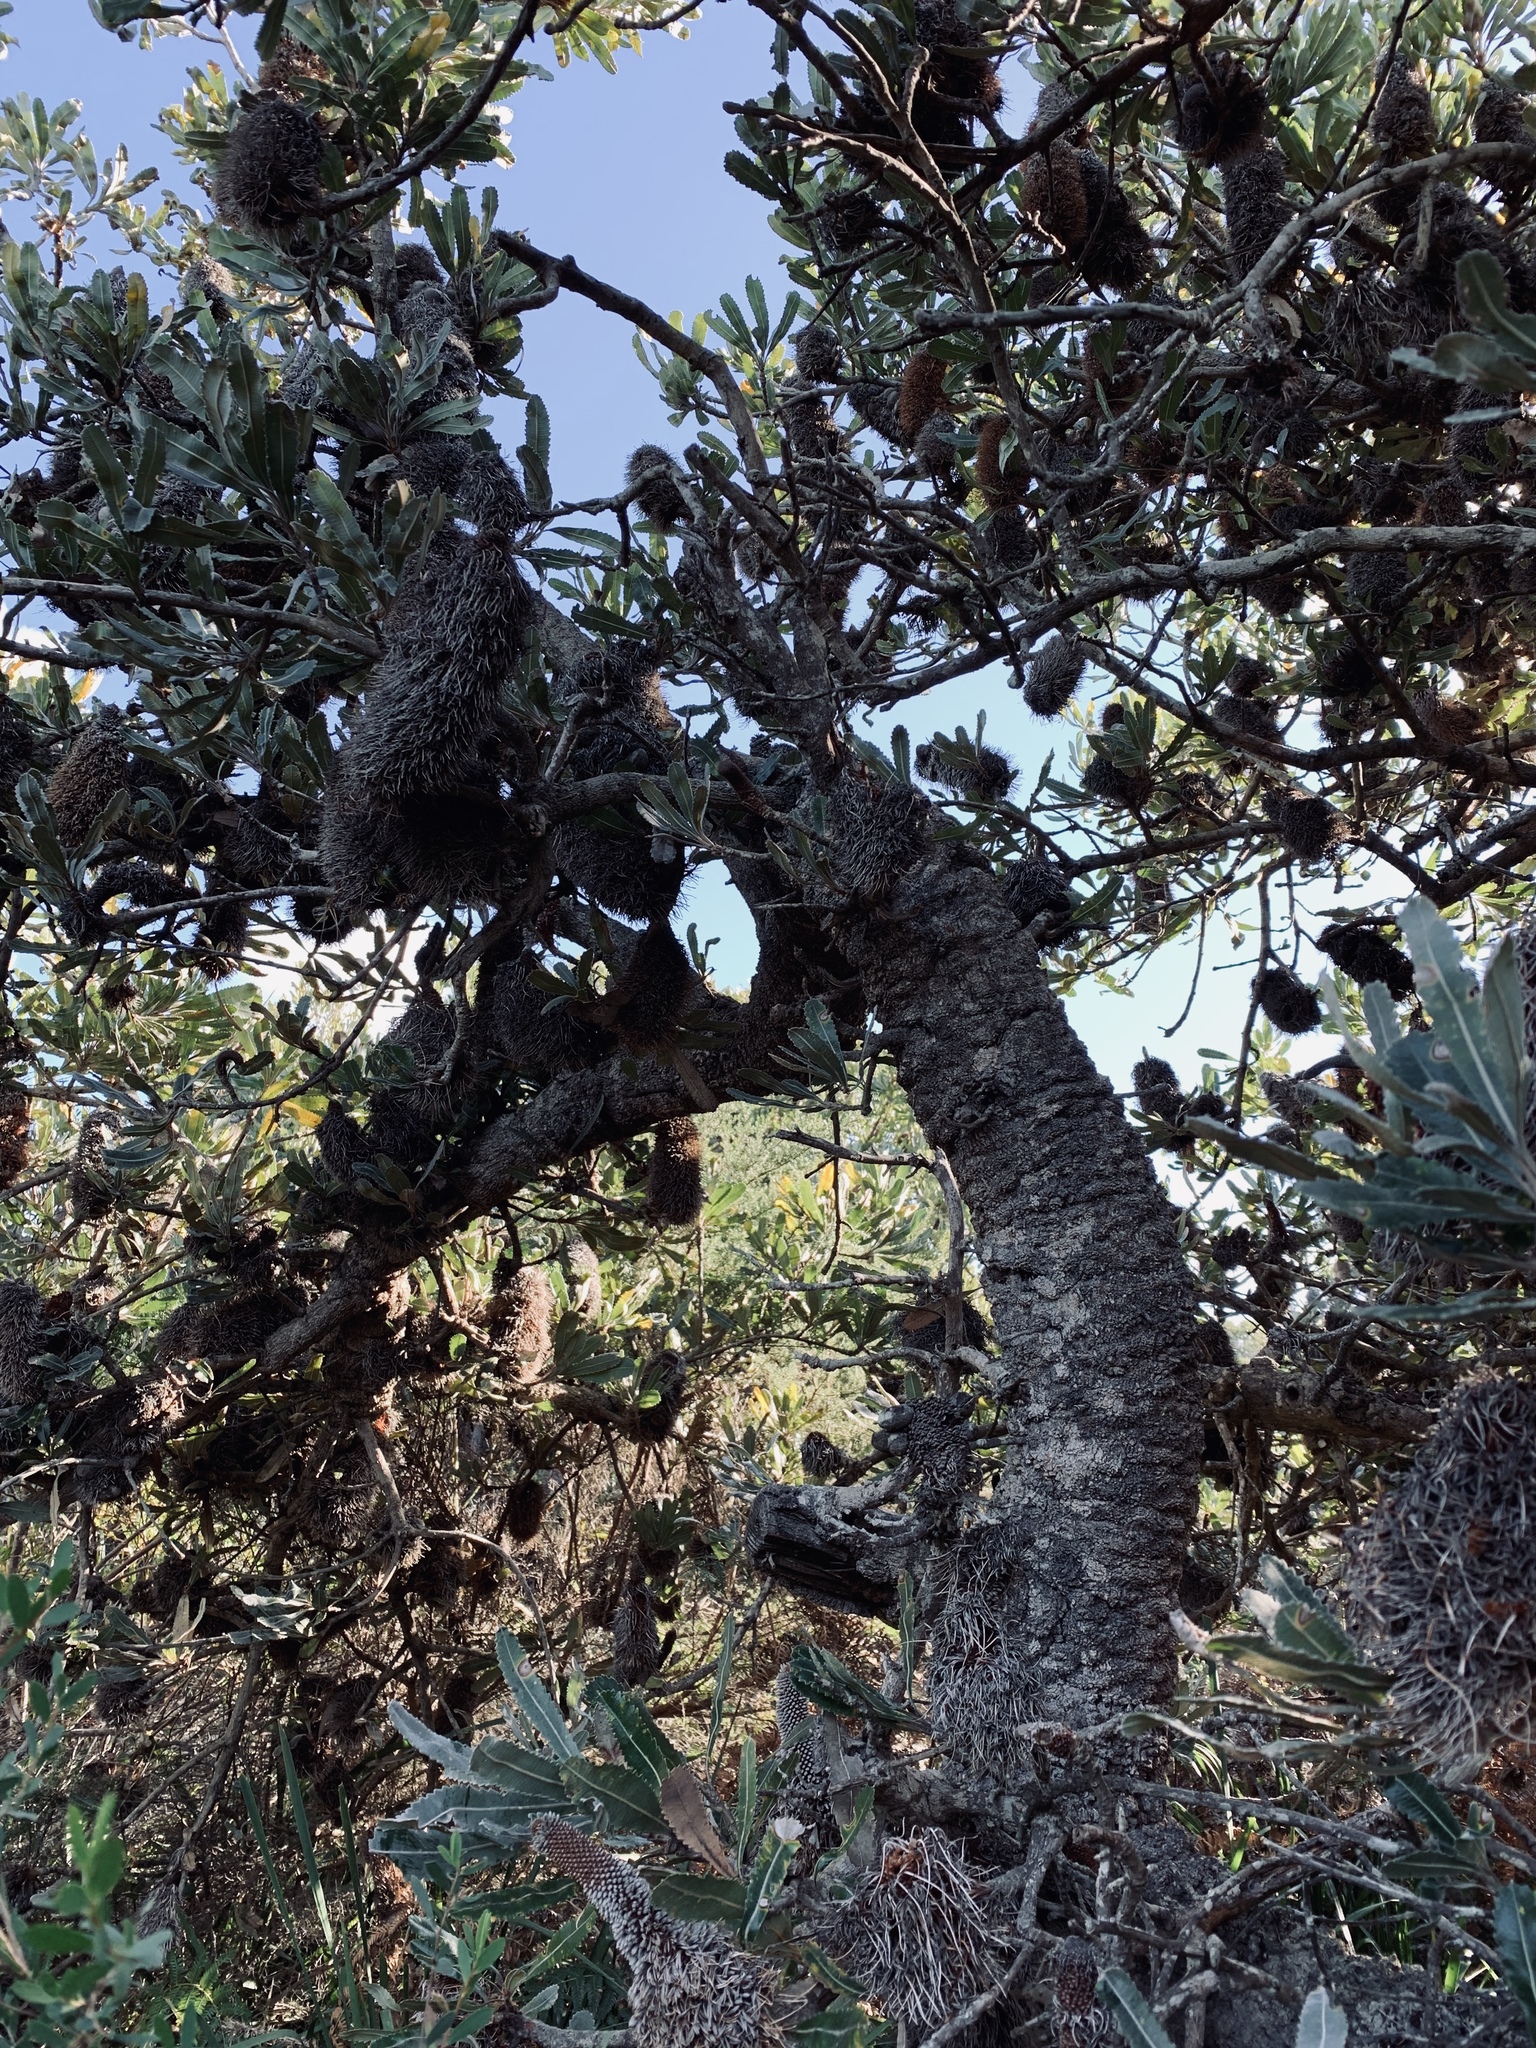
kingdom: Plantae
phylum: Tracheophyta
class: Magnoliopsida
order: Proteales
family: Proteaceae
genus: Banksia
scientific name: Banksia serrata
